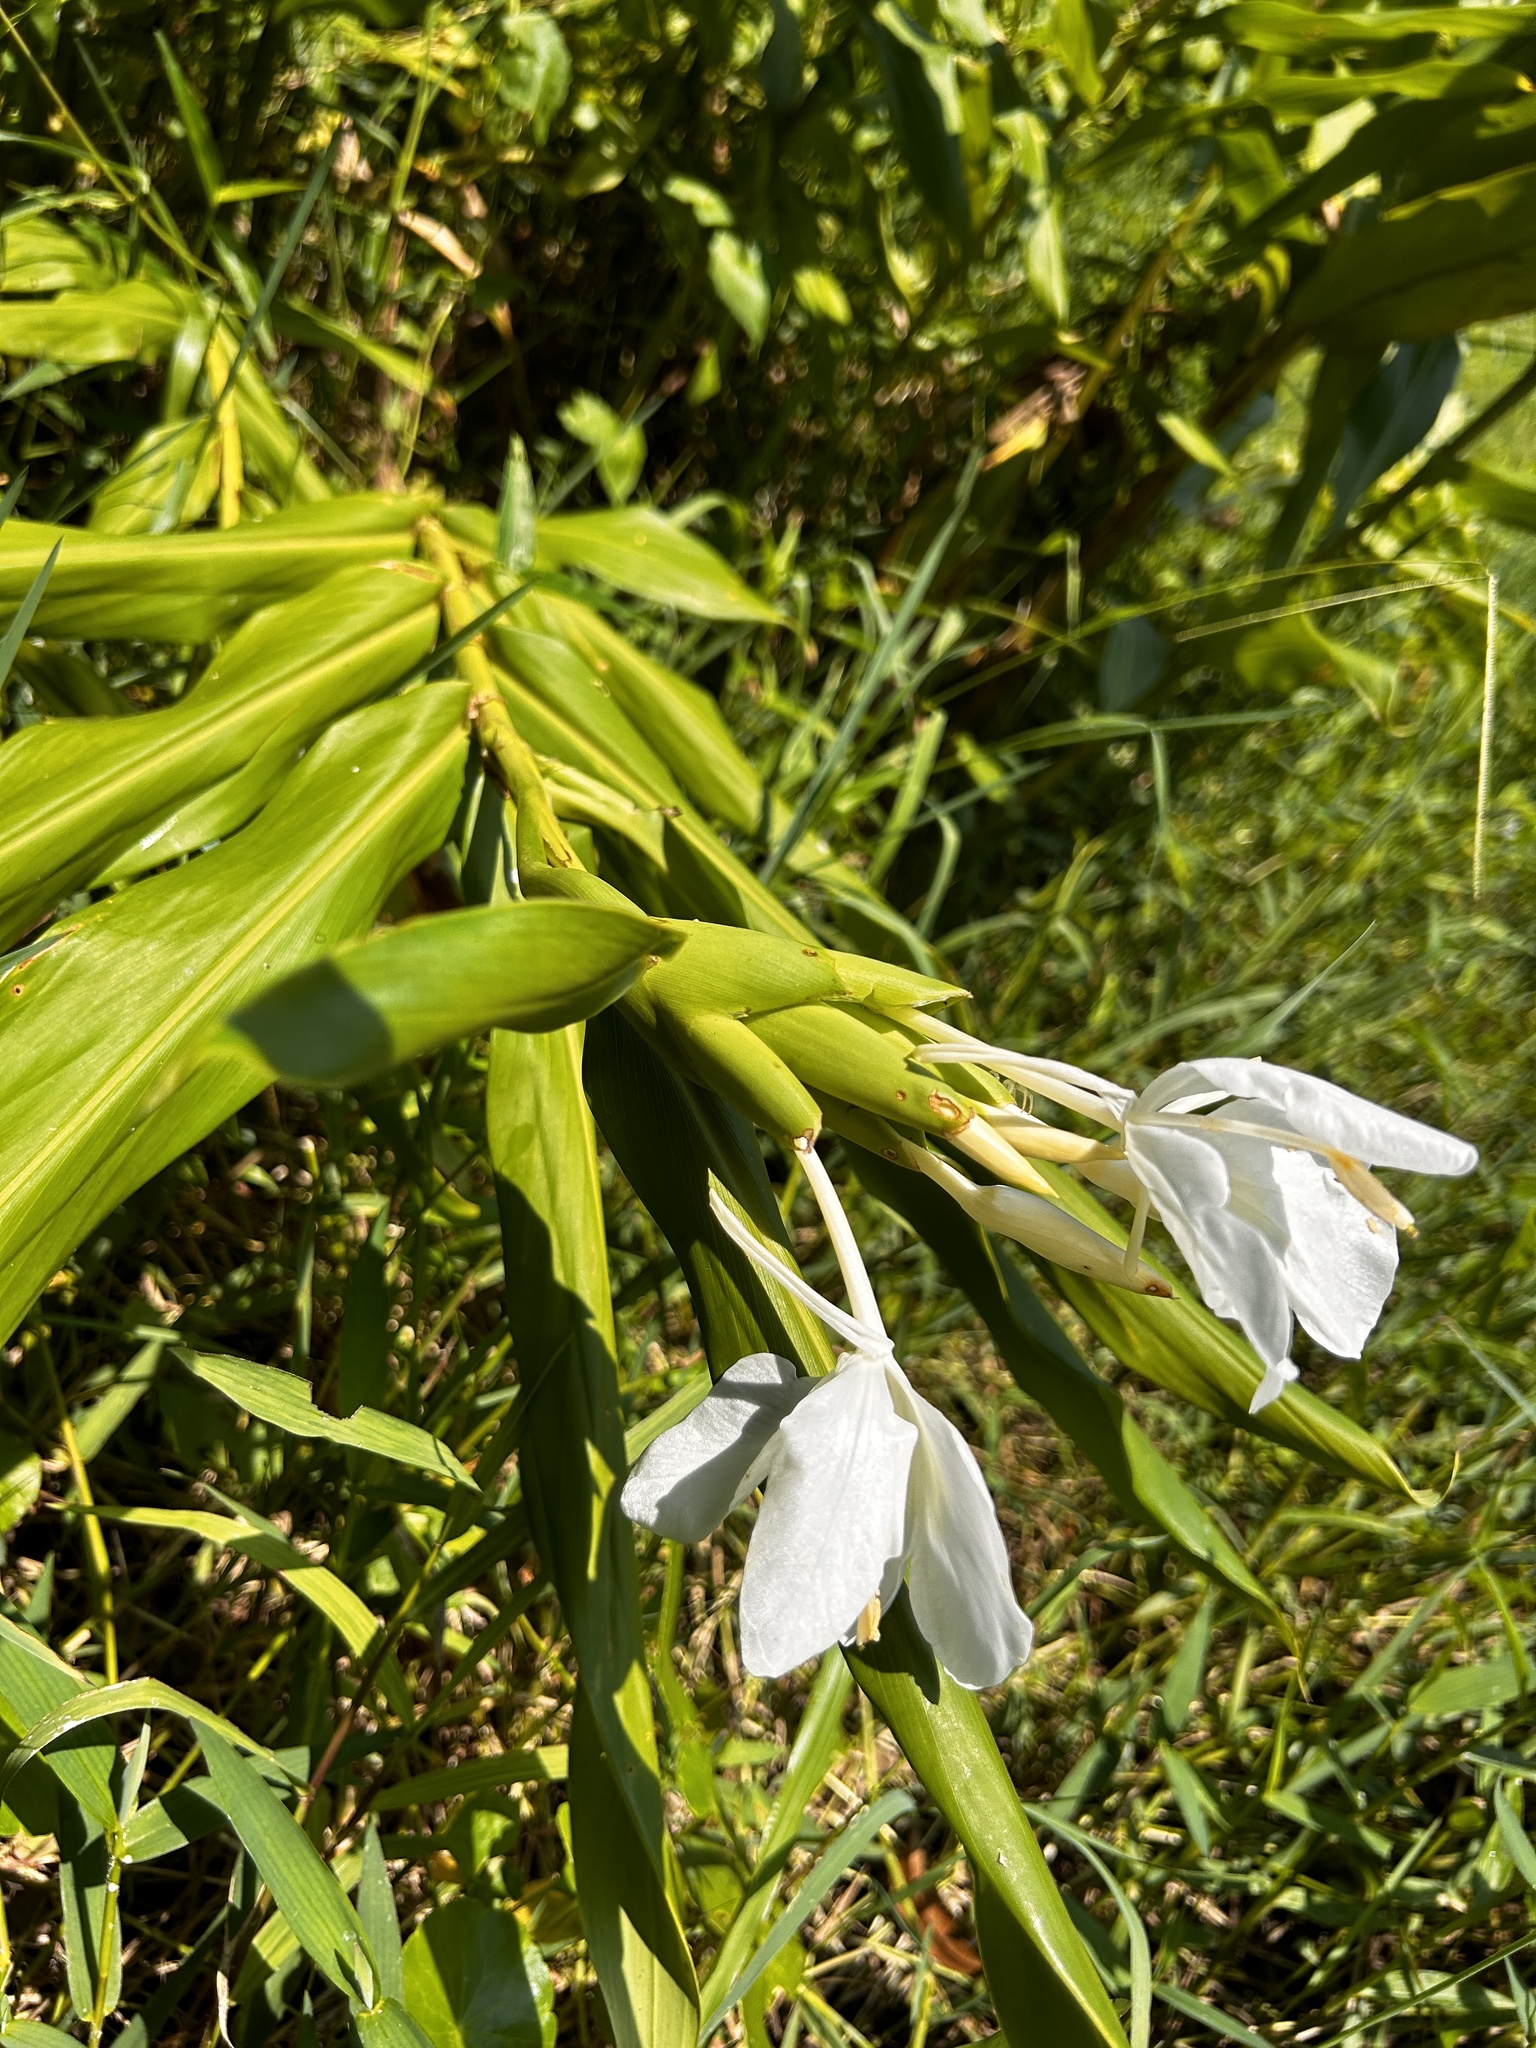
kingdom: Plantae
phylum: Tracheophyta
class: Liliopsida
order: Zingiberales
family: Zingiberaceae
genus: Hedychium
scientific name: Hedychium coronarium
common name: White garland-lily
